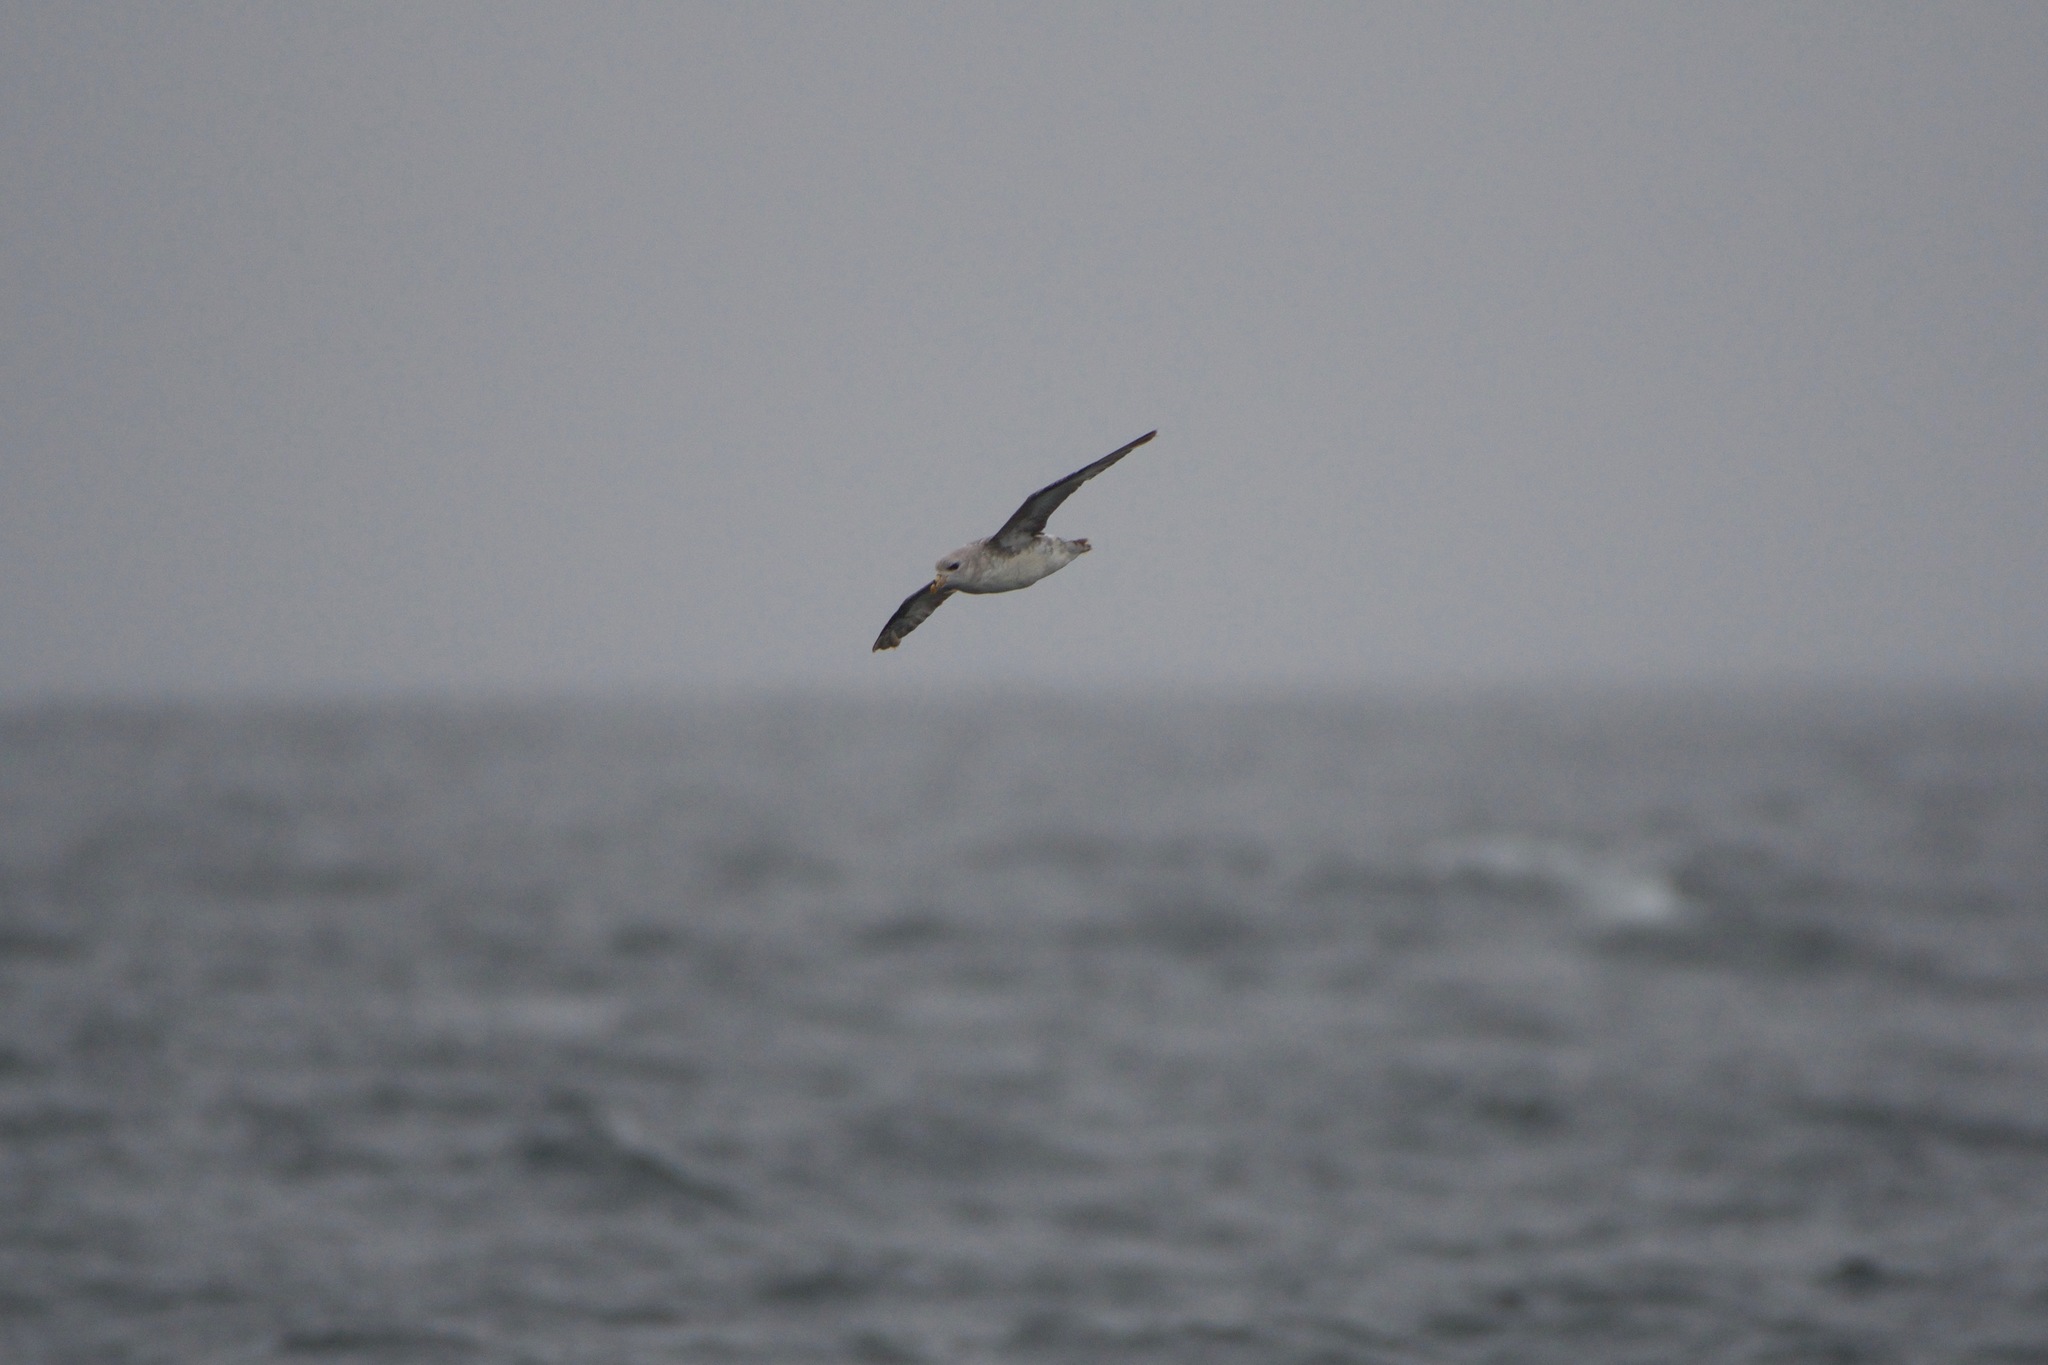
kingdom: Animalia
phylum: Chordata
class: Aves
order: Procellariiformes
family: Procellariidae
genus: Fulmarus
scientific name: Fulmarus glacialis
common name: Northern fulmar
